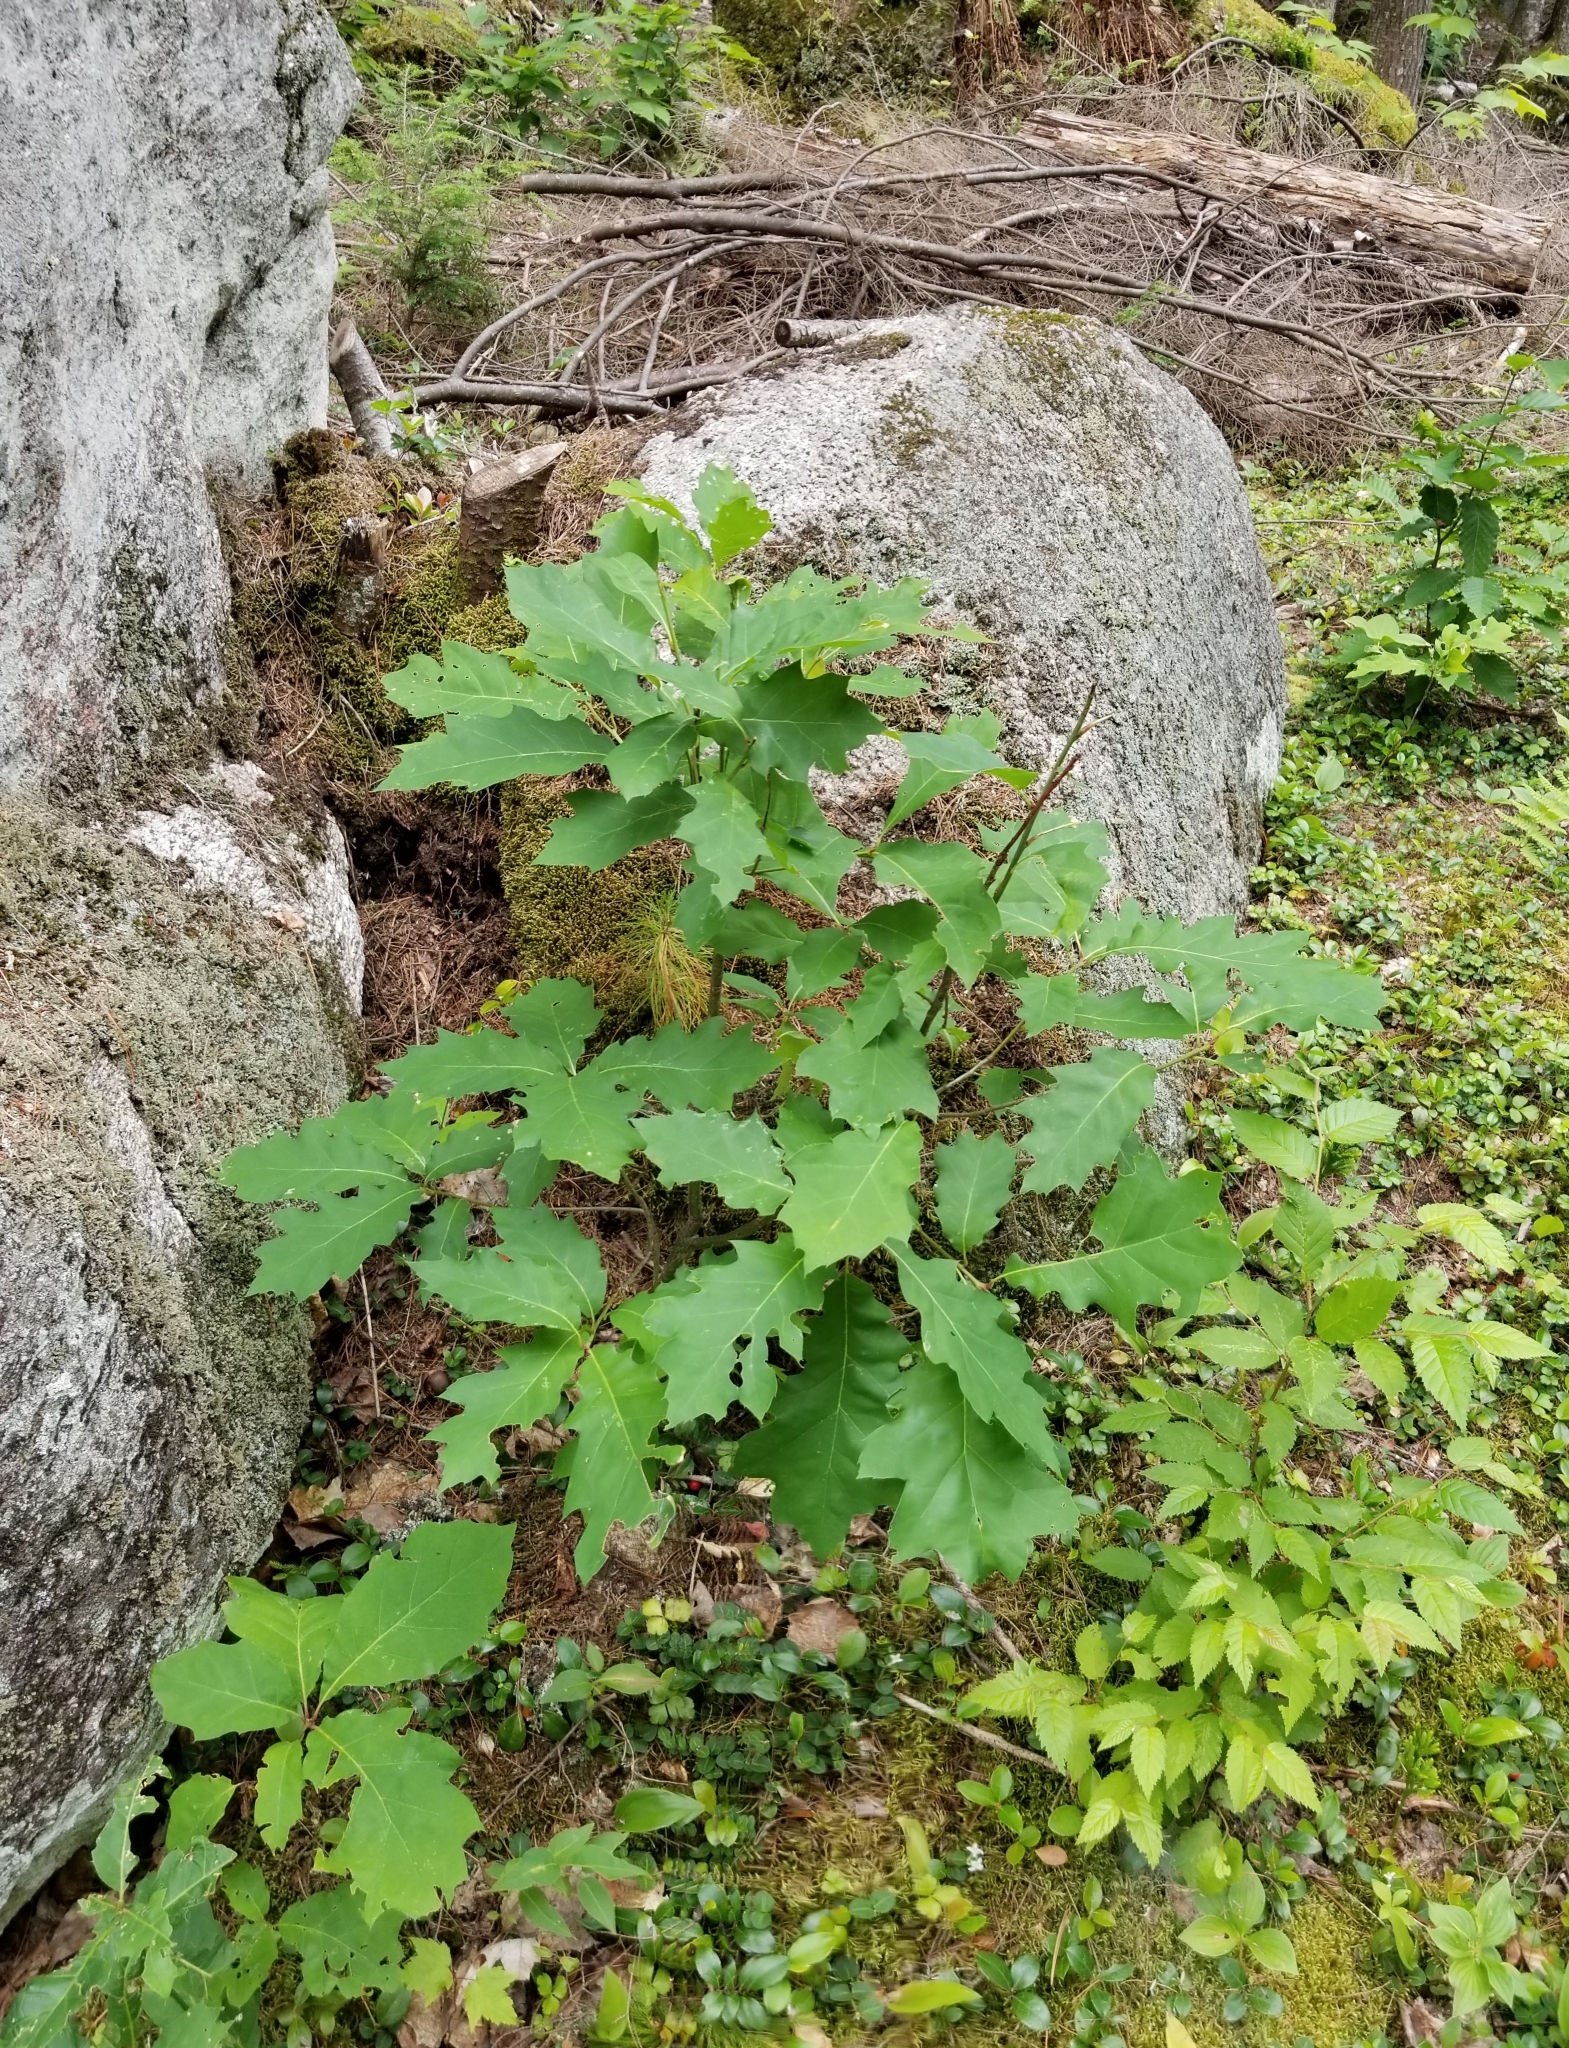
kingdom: Plantae
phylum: Tracheophyta
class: Magnoliopsida
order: Fagales
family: Fagaceae
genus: Quercus
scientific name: Quercus rubra
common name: Red oak
